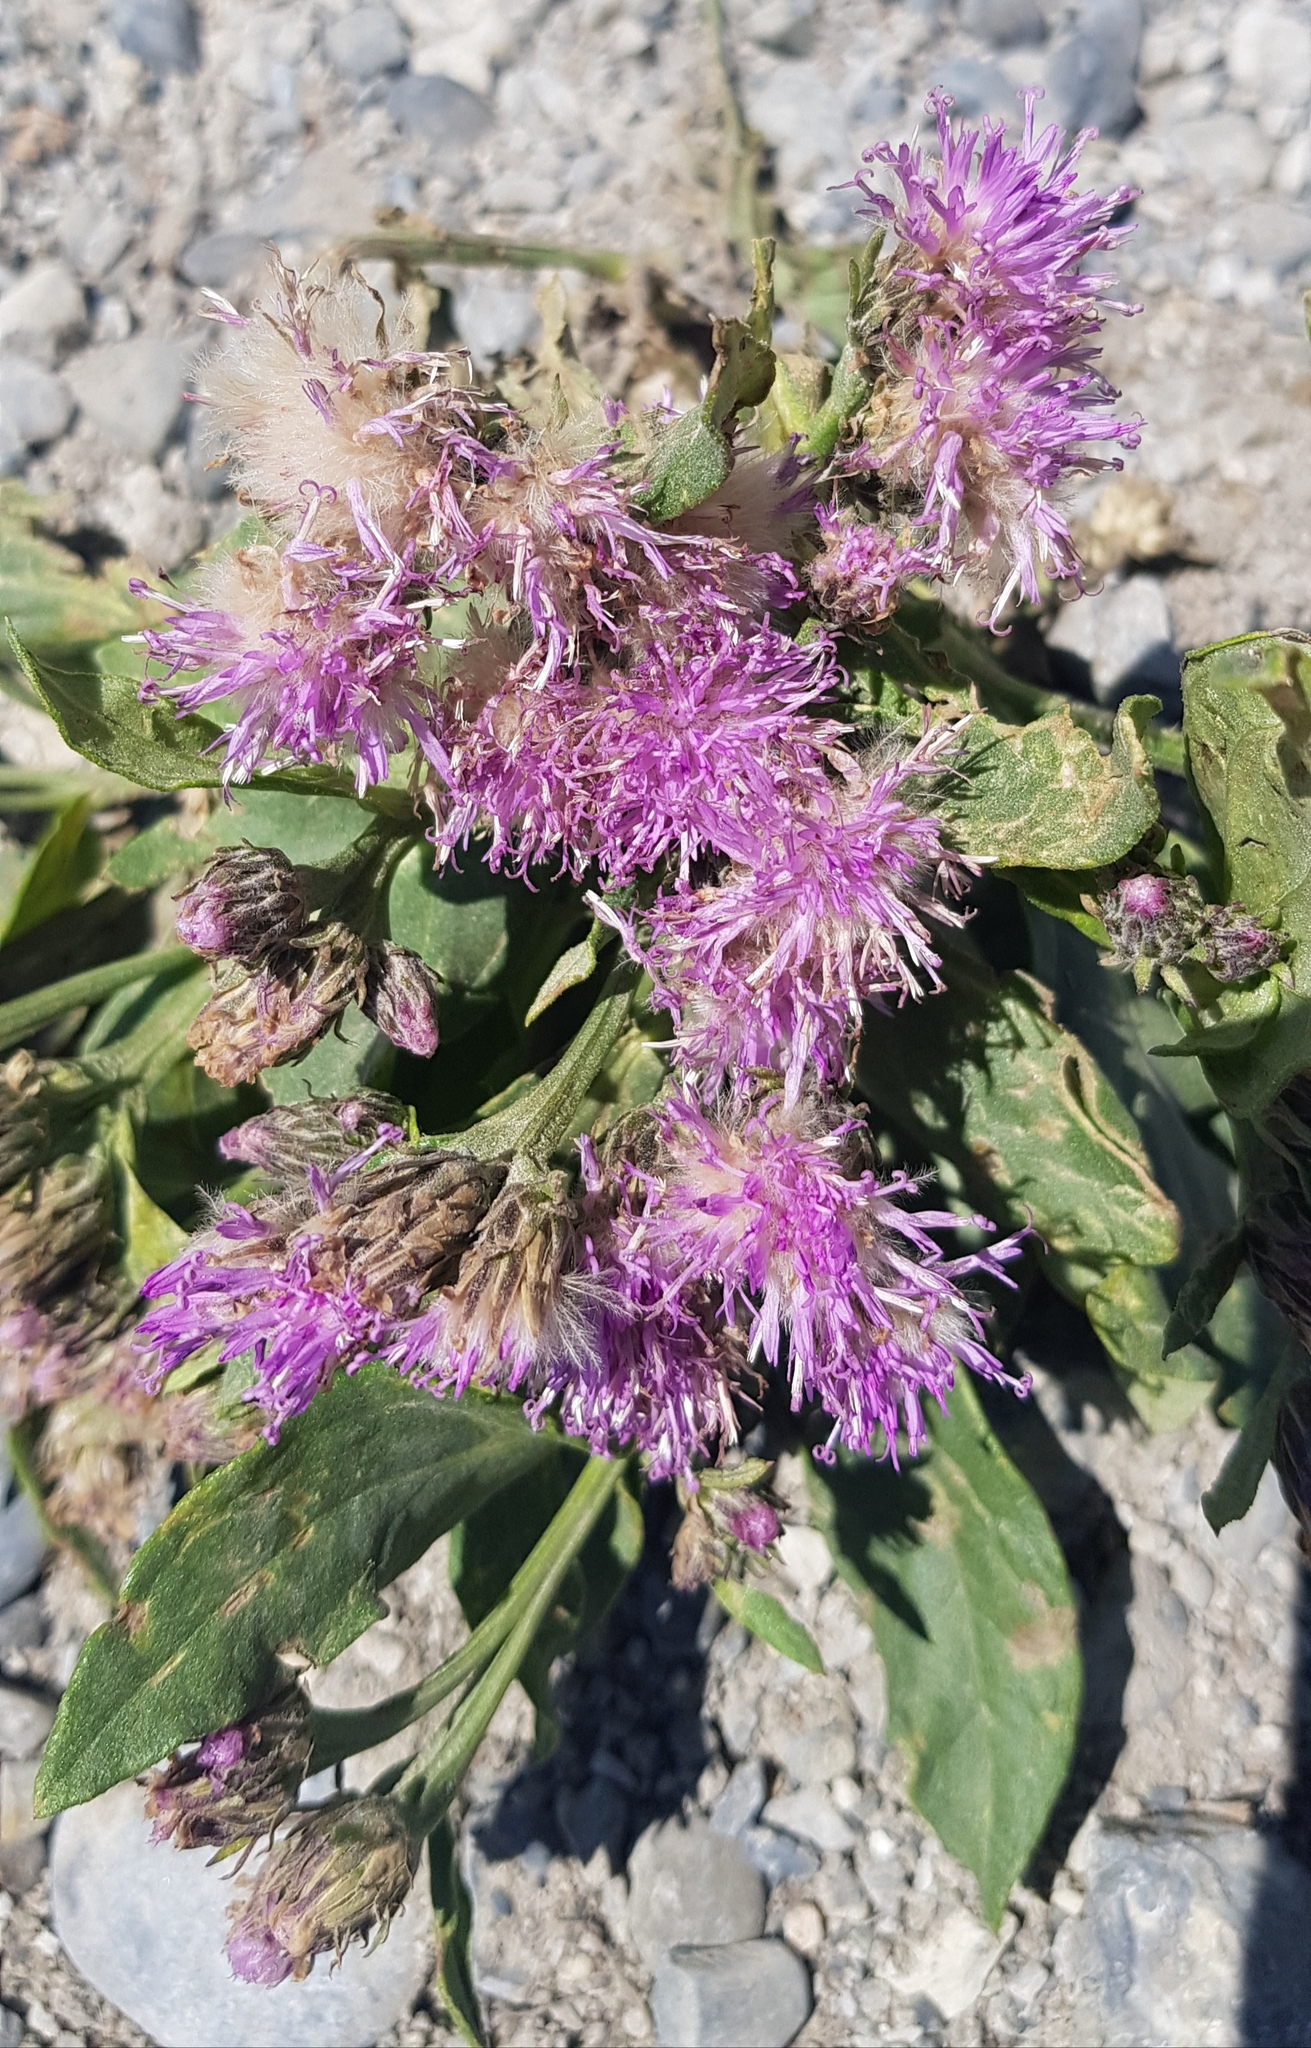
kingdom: Plantae
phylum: Tracheophyta
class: Magnoliopsida
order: Asterales
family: Asteraceae
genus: Saussurea
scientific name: Saussurea amara
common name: Alberta sawwort
